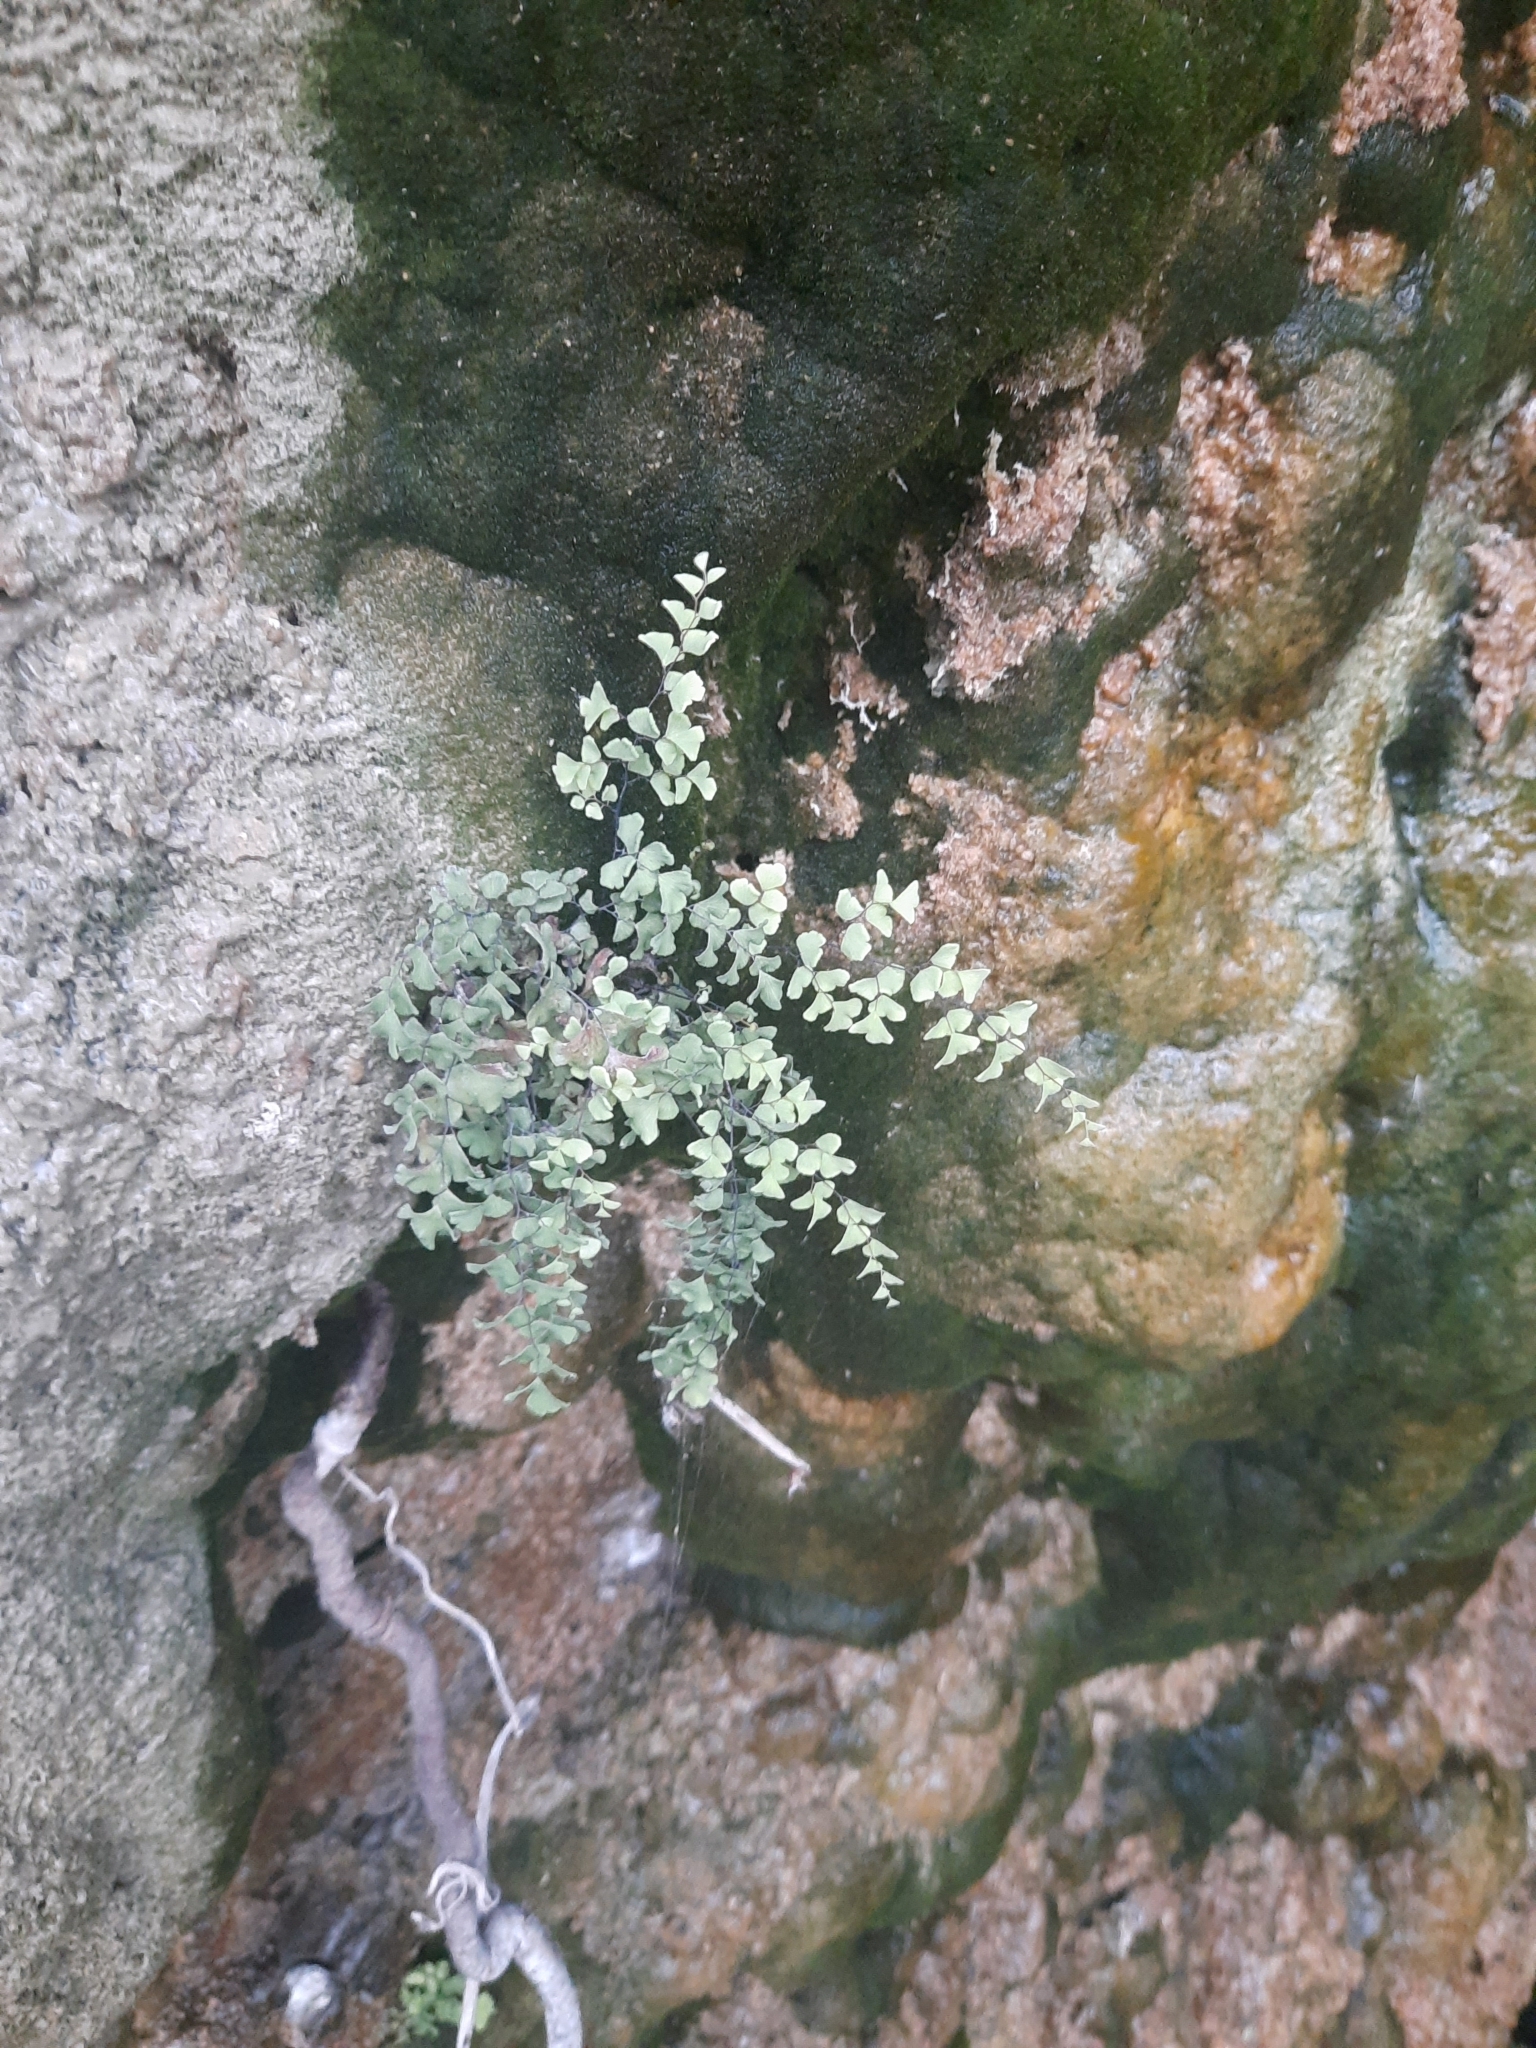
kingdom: Plantae
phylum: Tracheophyta
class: Polypodiopsida
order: Polypodiales
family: Pteridaceae
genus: Adiantum
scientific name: Adiantum capillus-veneris
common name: Maidenhair fern
